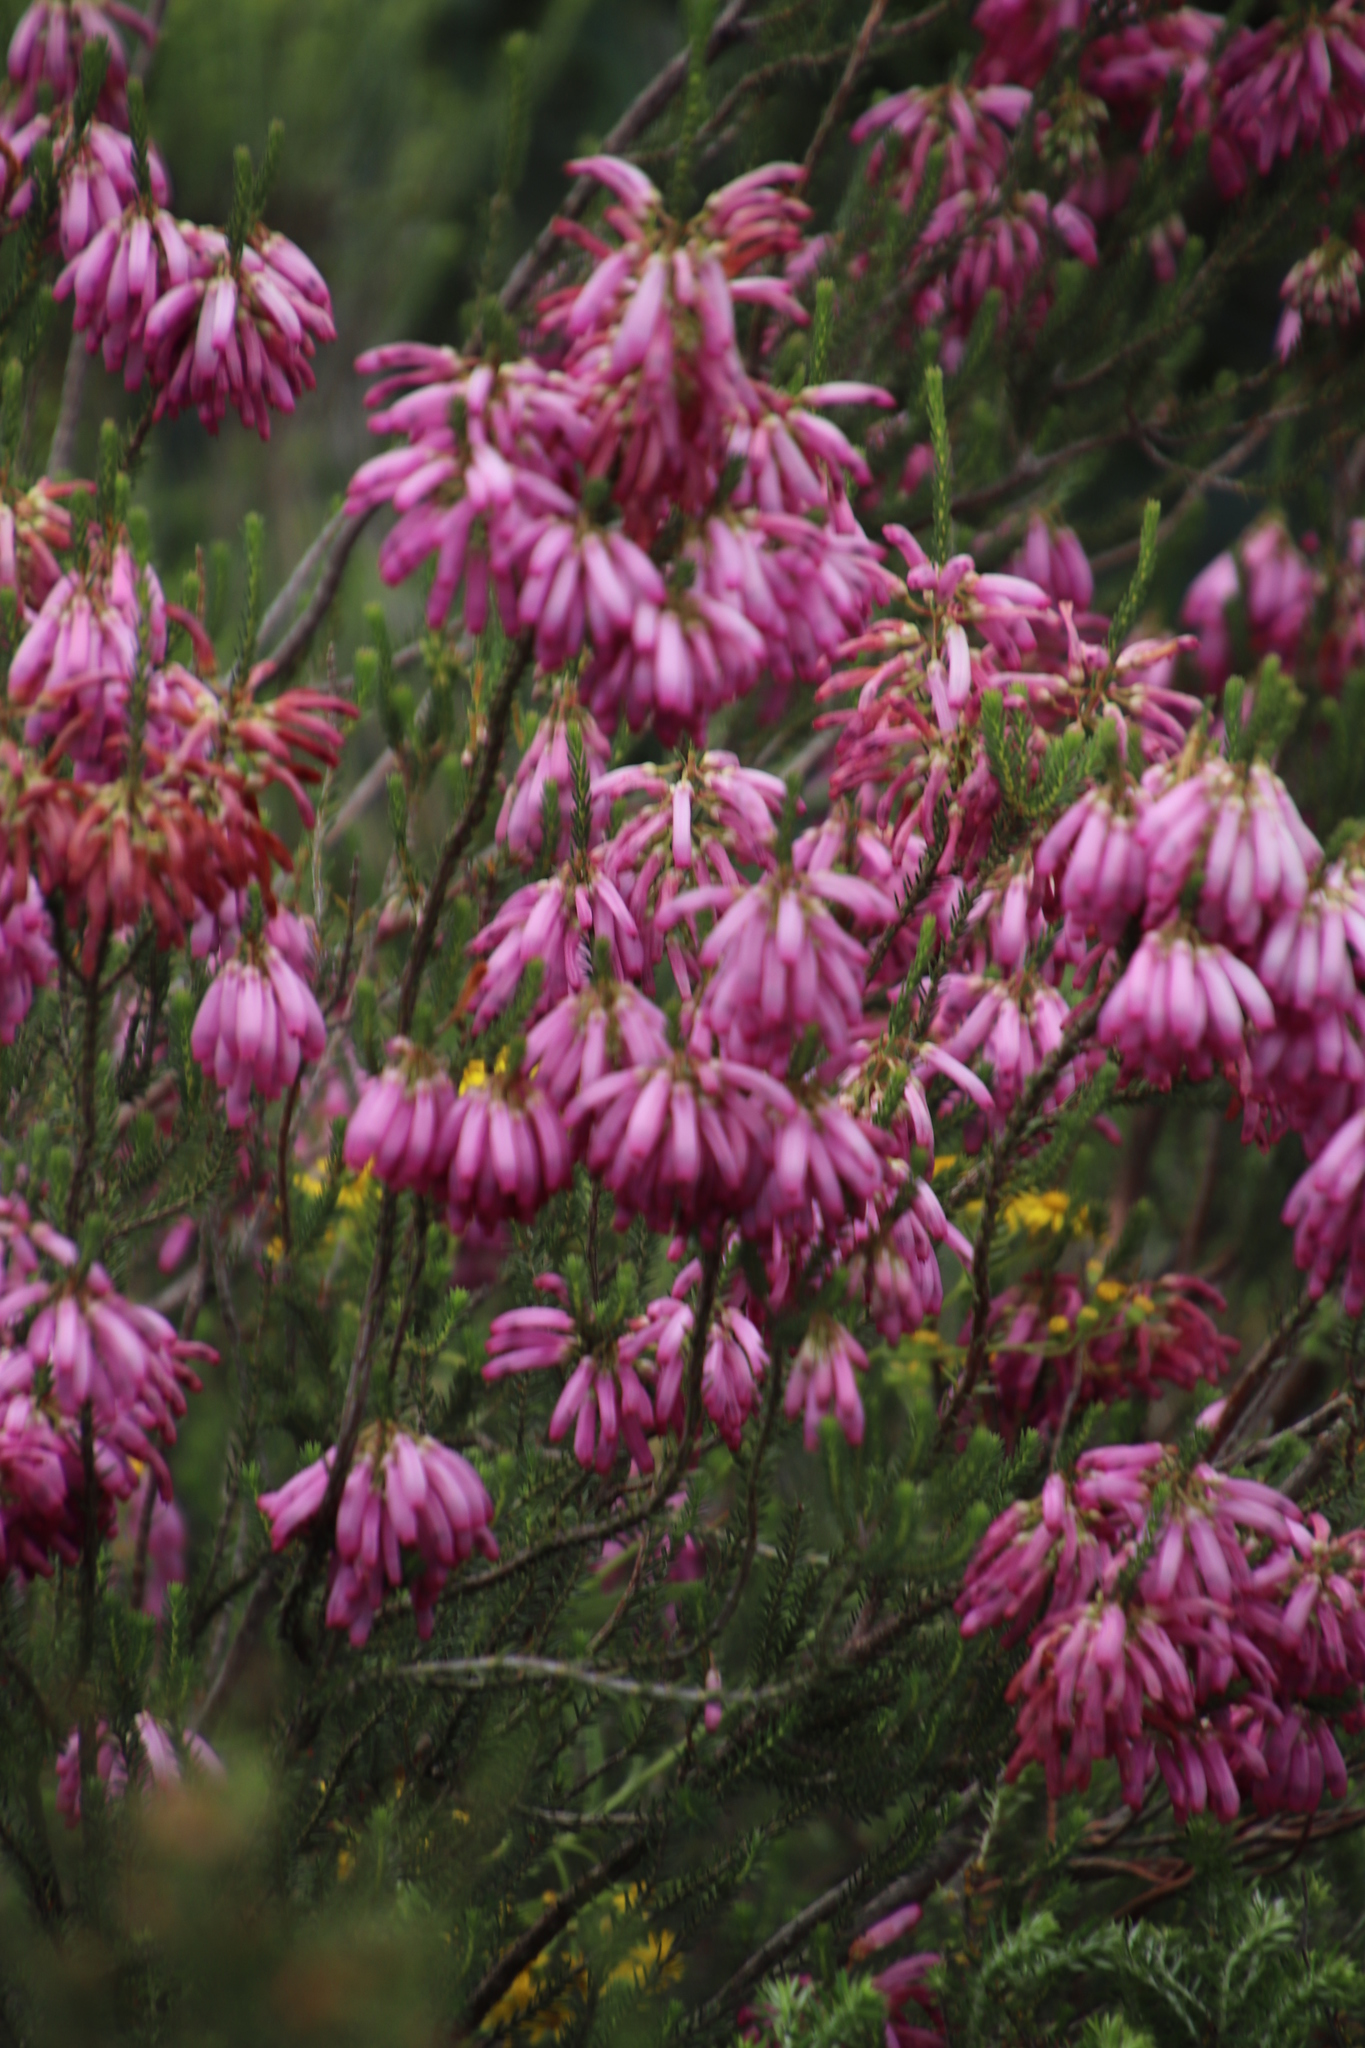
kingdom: Plantae
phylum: Tracheophyta
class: Magnoliopsida
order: Ericales
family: Ericaceae
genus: Erica
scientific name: Erica mammosa
